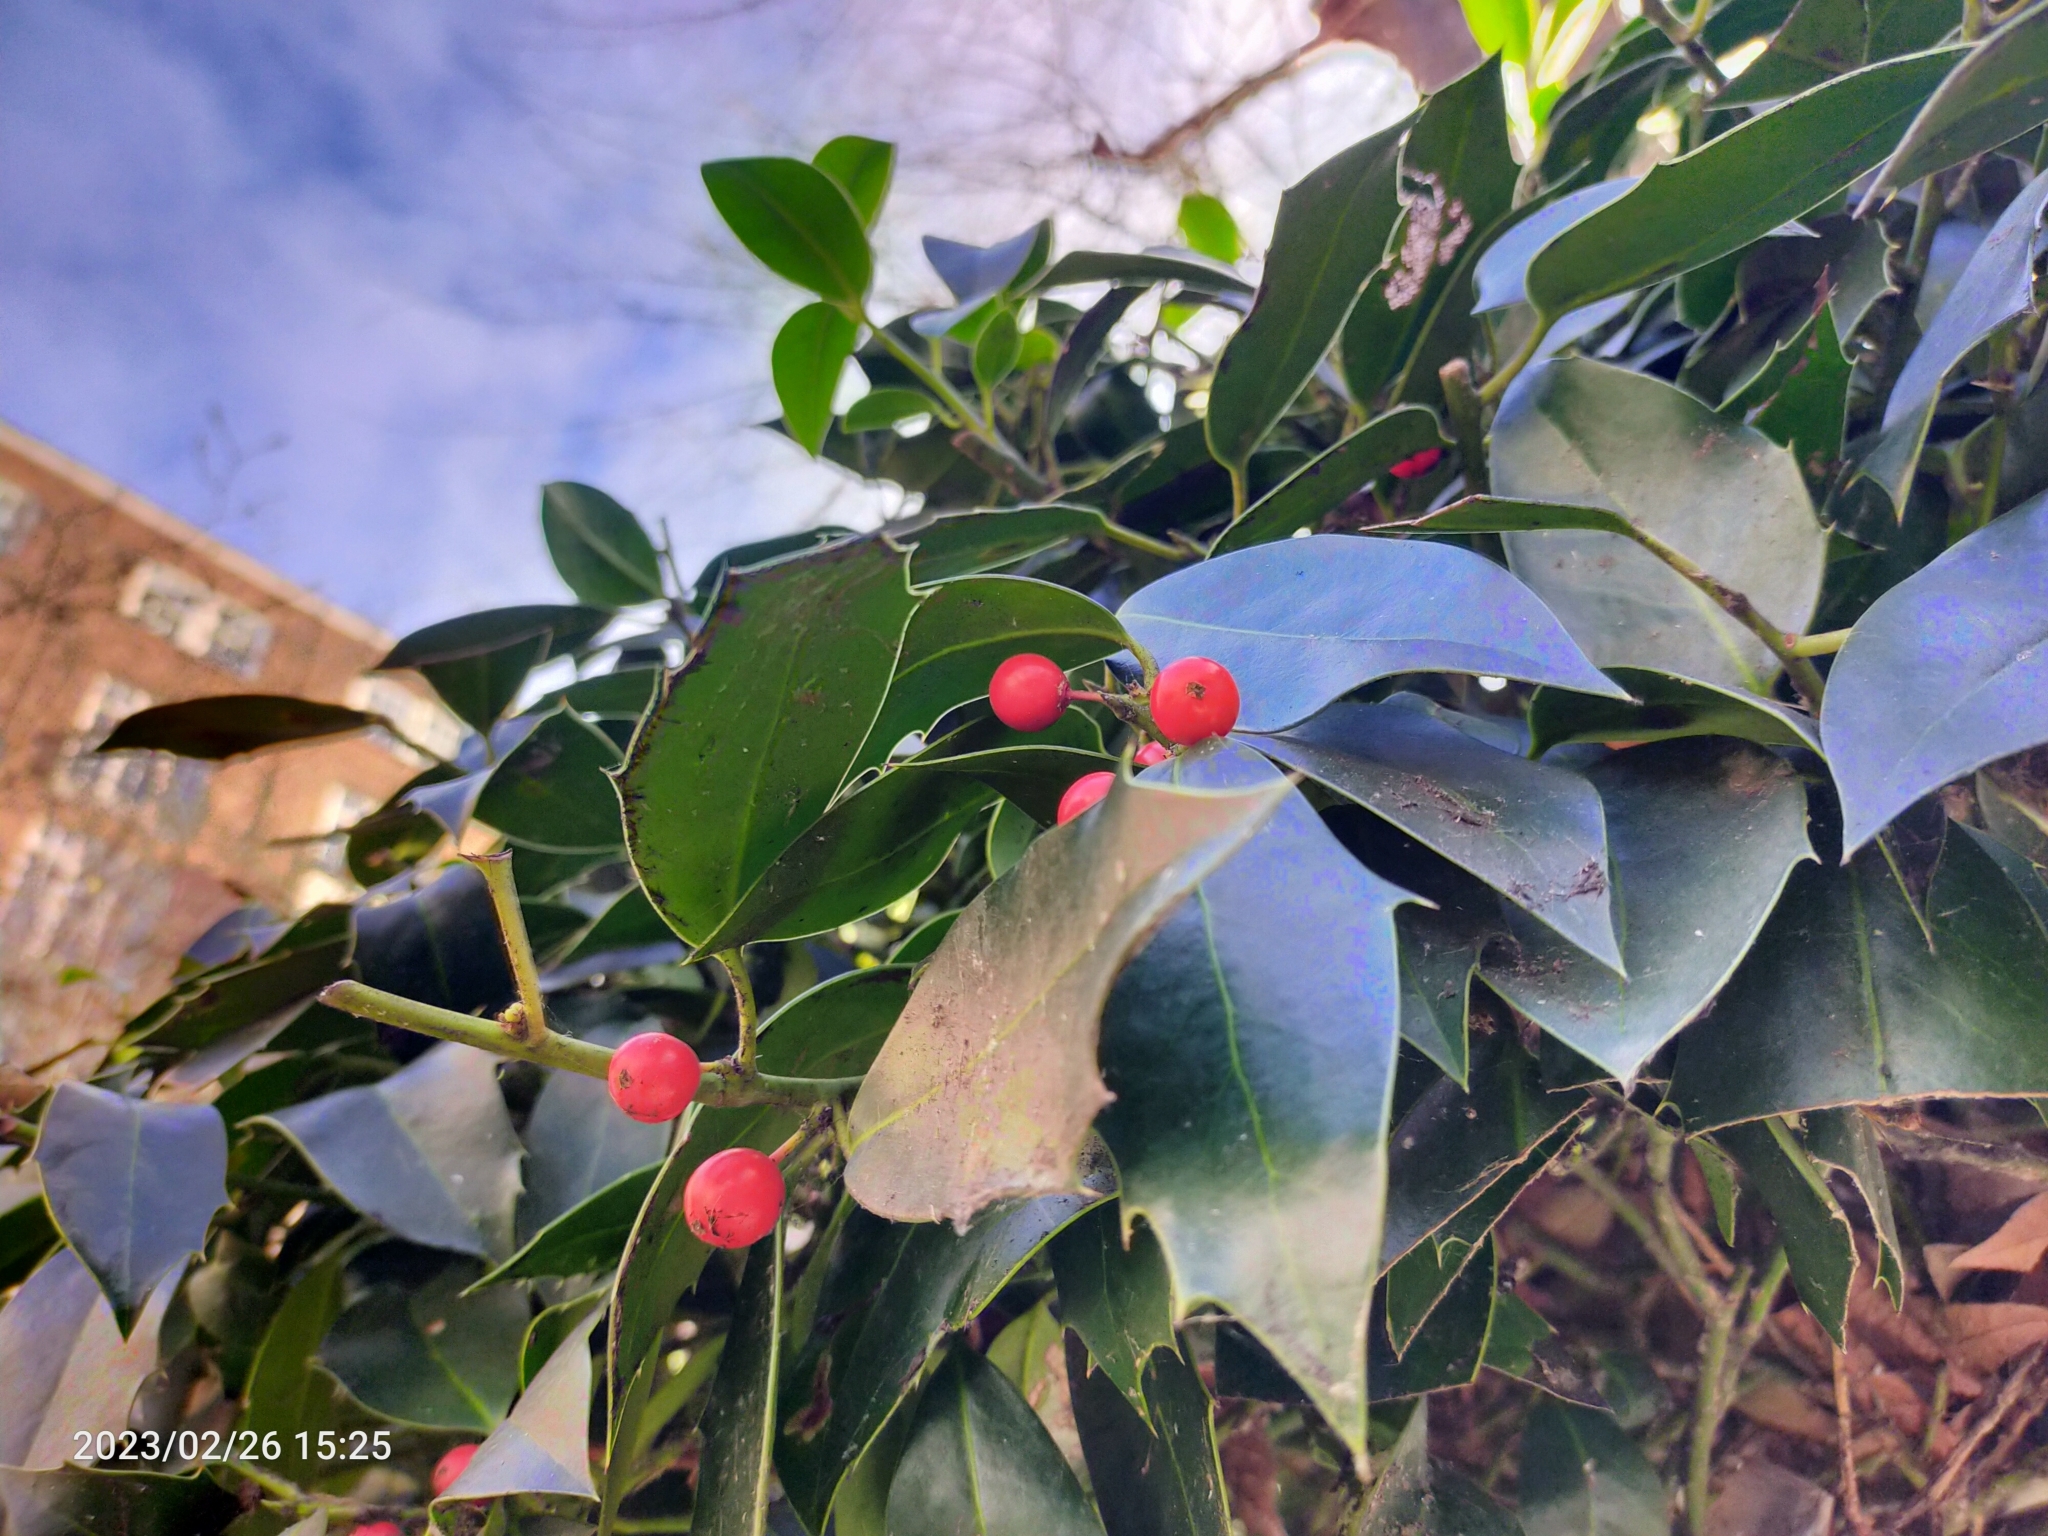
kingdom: Plantae
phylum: Tracheophyta
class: Magnoliopsida
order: Aquifoliales
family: Aquifoliaceae
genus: Ilex
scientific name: Ilex aquifolium
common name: English holly
